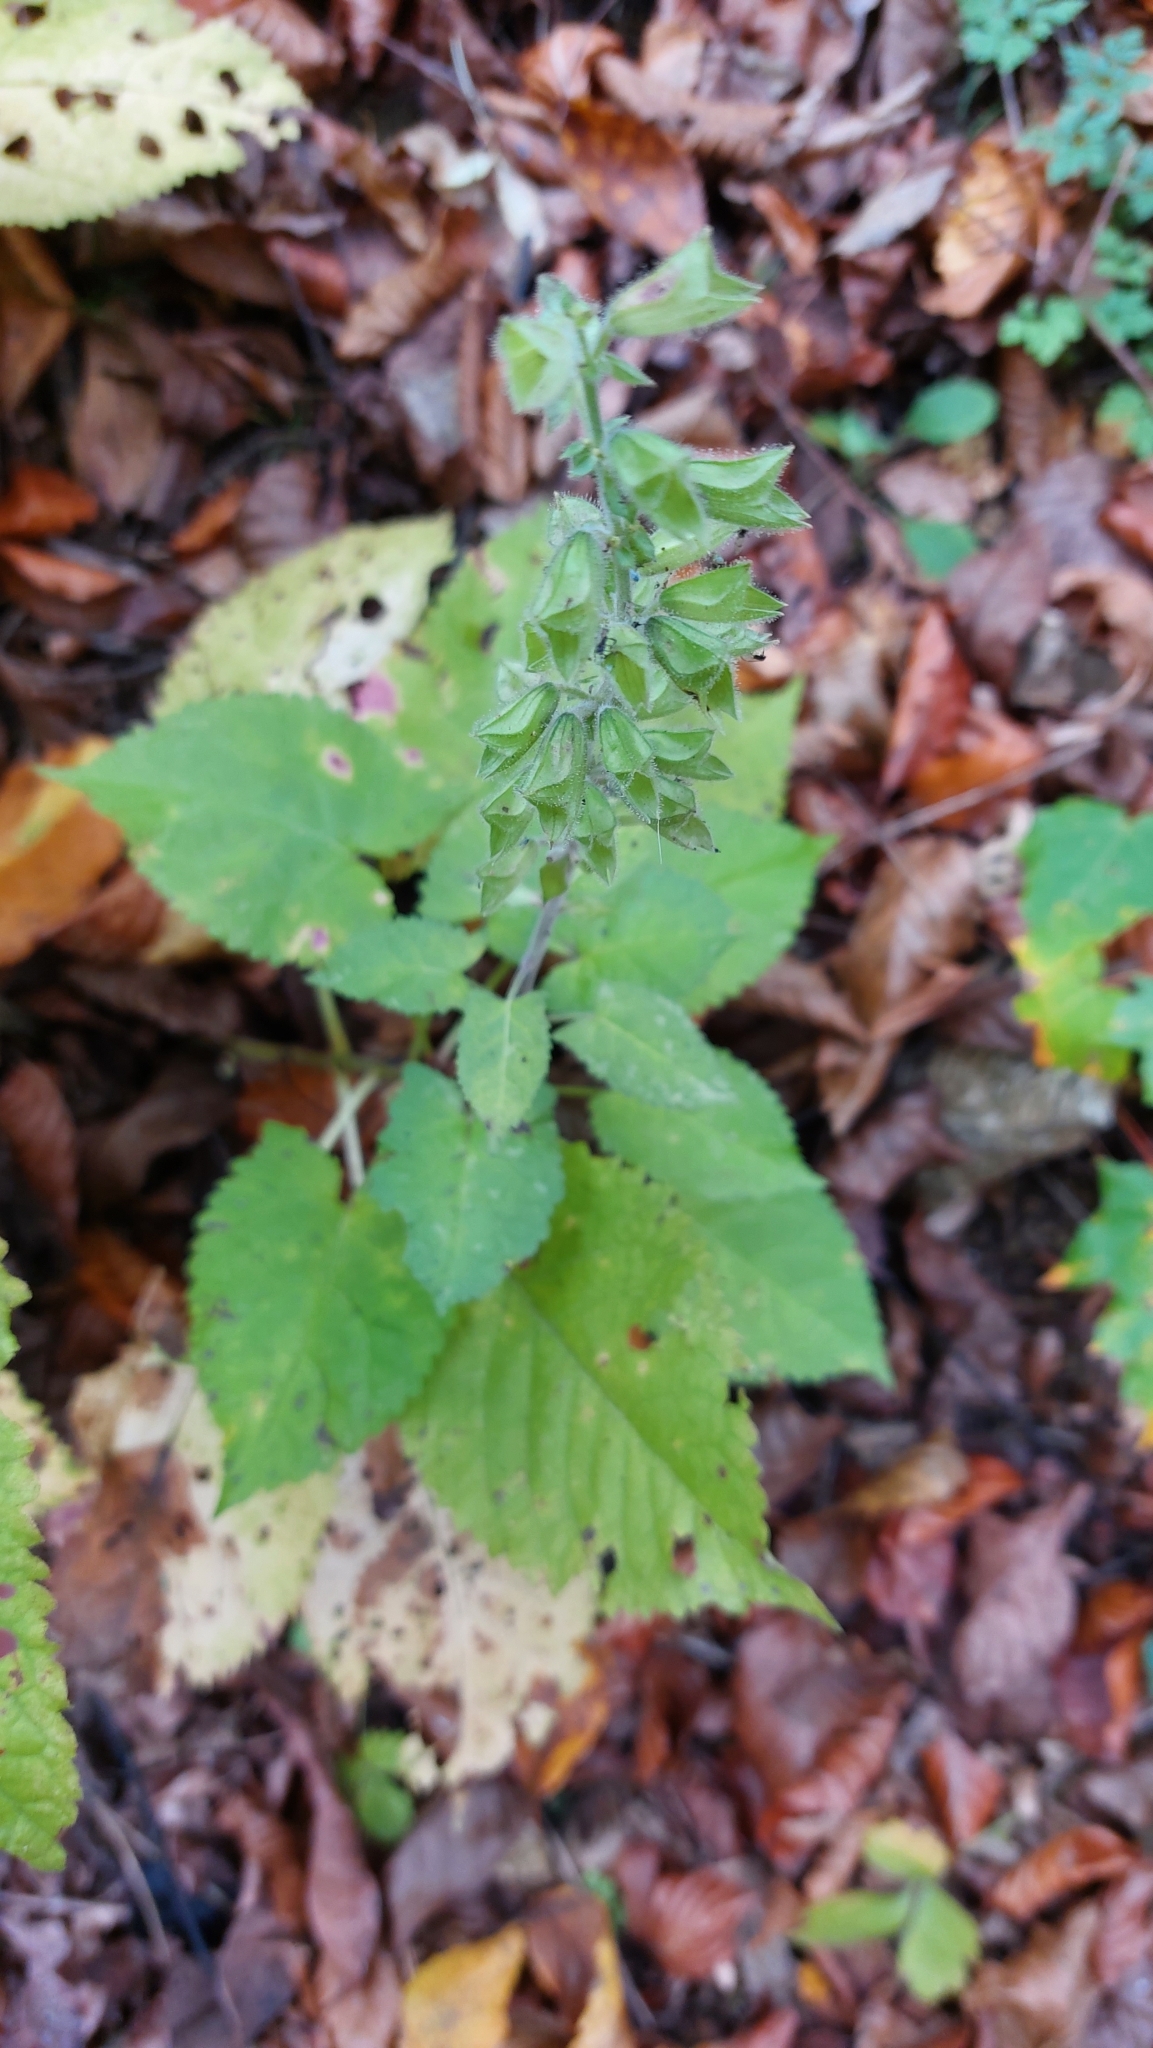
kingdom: Plantae
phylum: Tracheophyta
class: Magnoliopsida
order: Lamiales
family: Lamiaceae
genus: Salvia
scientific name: Salvia glutinosa
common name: Sticky clary
